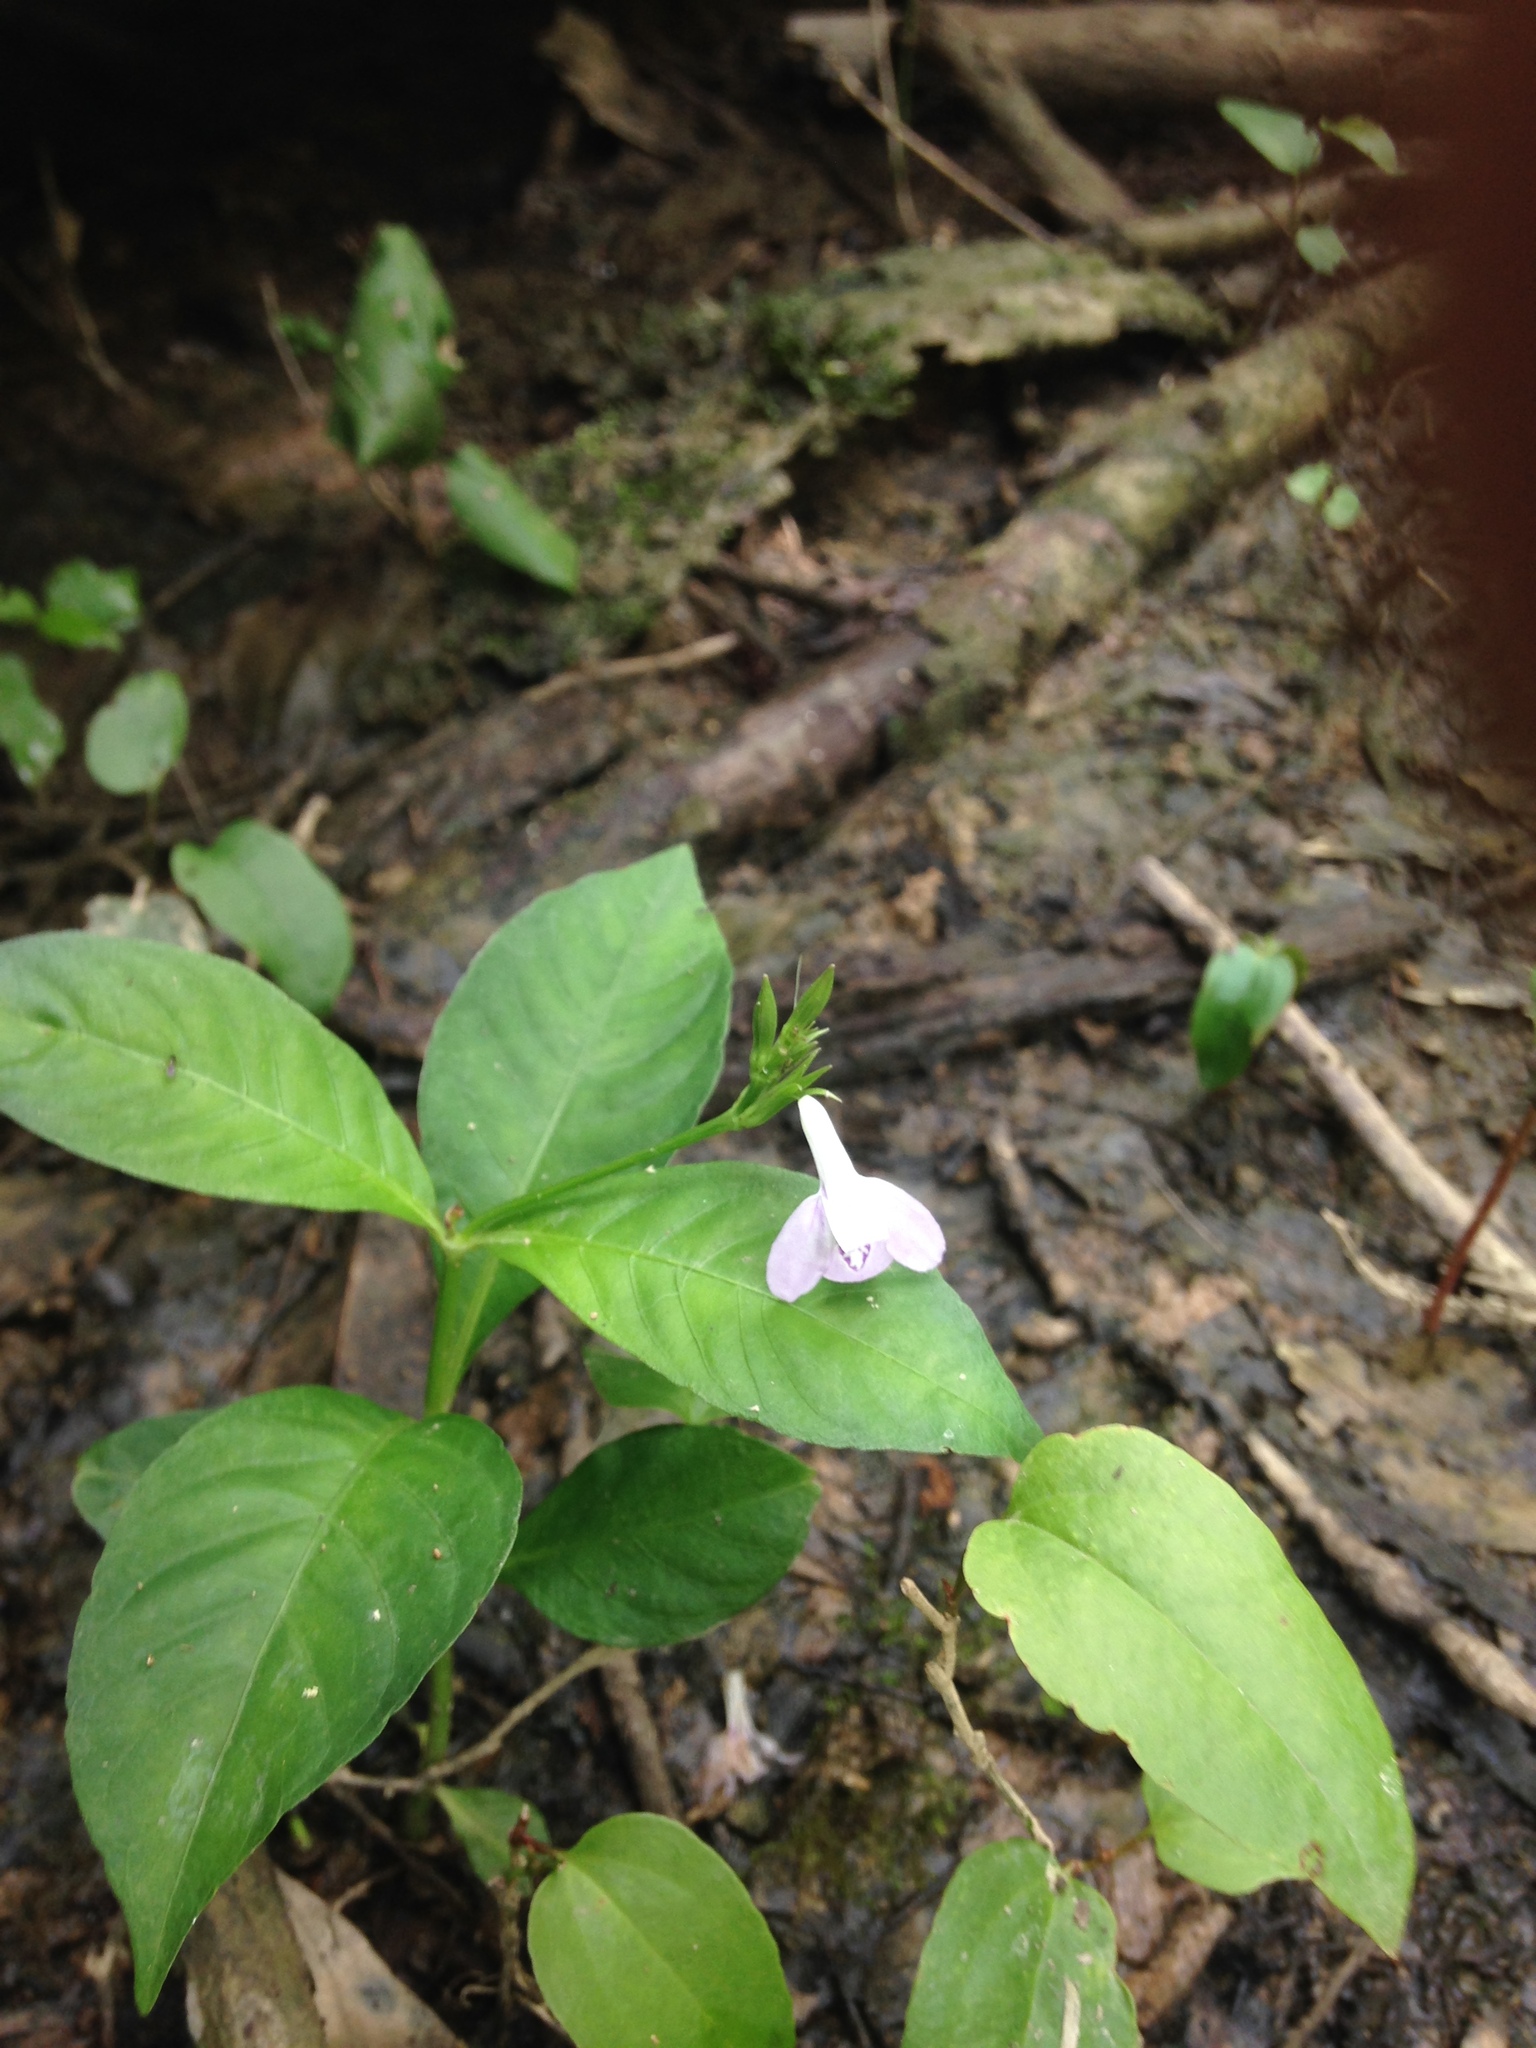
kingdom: Plantae
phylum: Tracheophyta
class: Magnoliopsida
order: Lamiales
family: Acanthaceae
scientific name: Acanthaceae
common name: Acanthaceae
